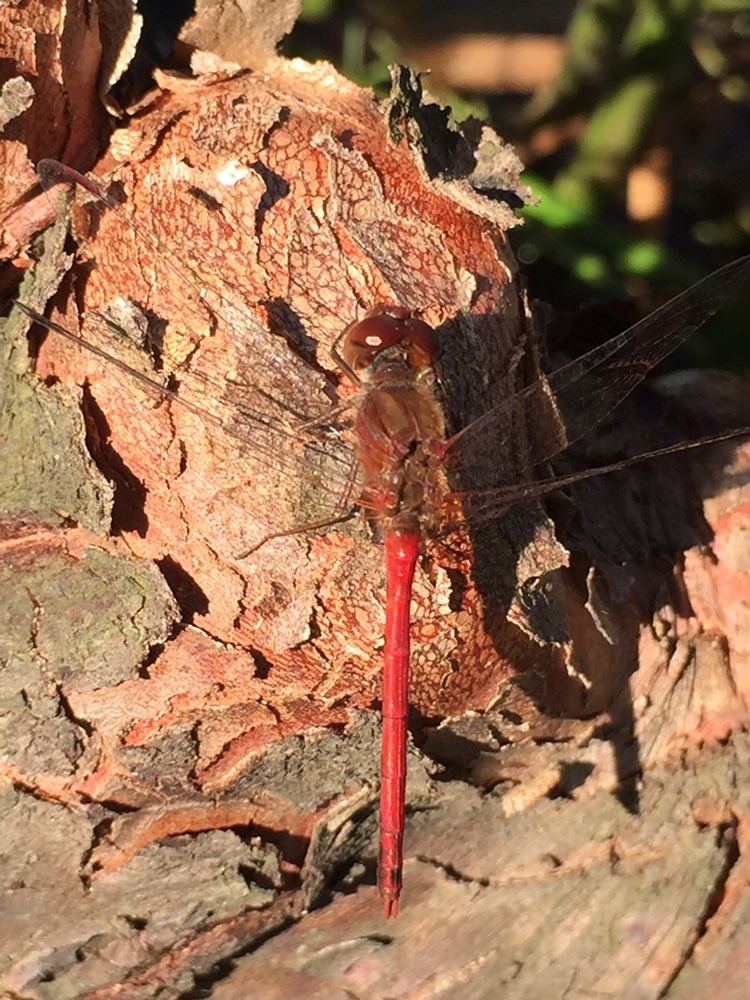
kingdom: Animalia
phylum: Arthropoda
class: Insecta
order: Odonata
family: Libellulidae
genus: Sympetrum
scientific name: Sympetrum vicinum
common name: Autumn meadowhawk
